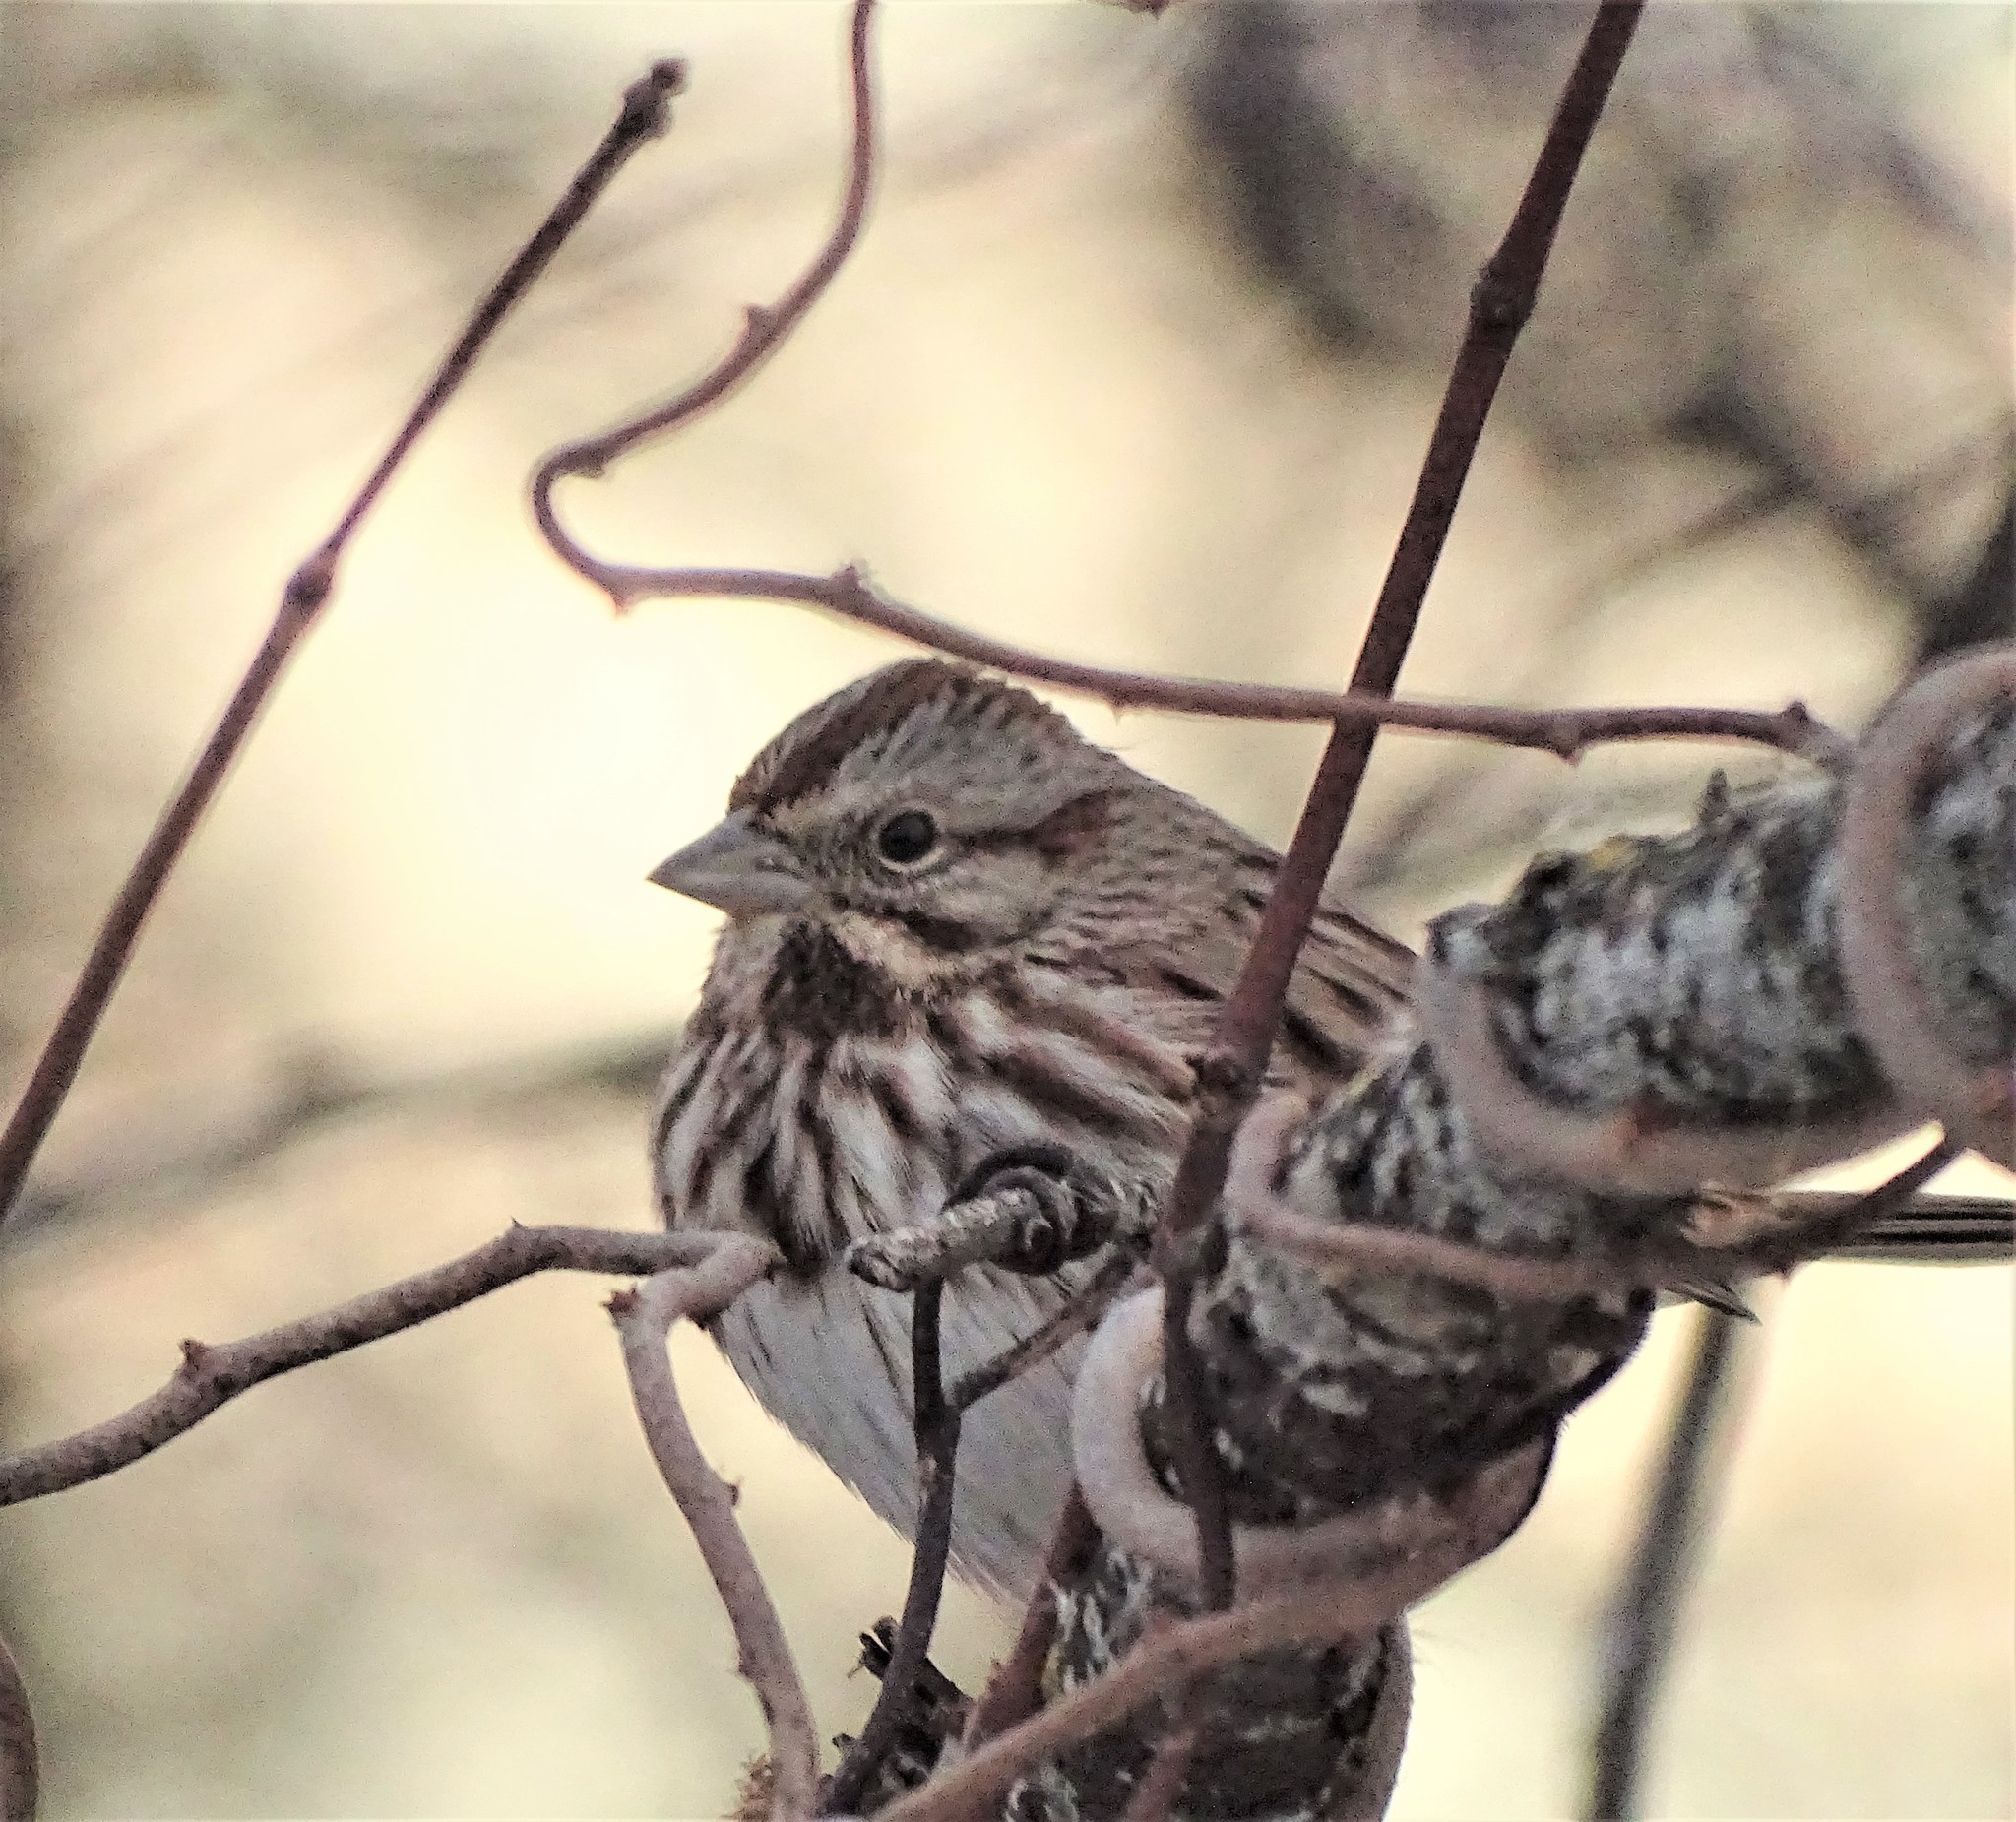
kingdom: Animalia
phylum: Chordata
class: Aves
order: Passeriformes
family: Passerellidae
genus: Melospiza
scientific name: Melospiza melodia
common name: Song sparrow
